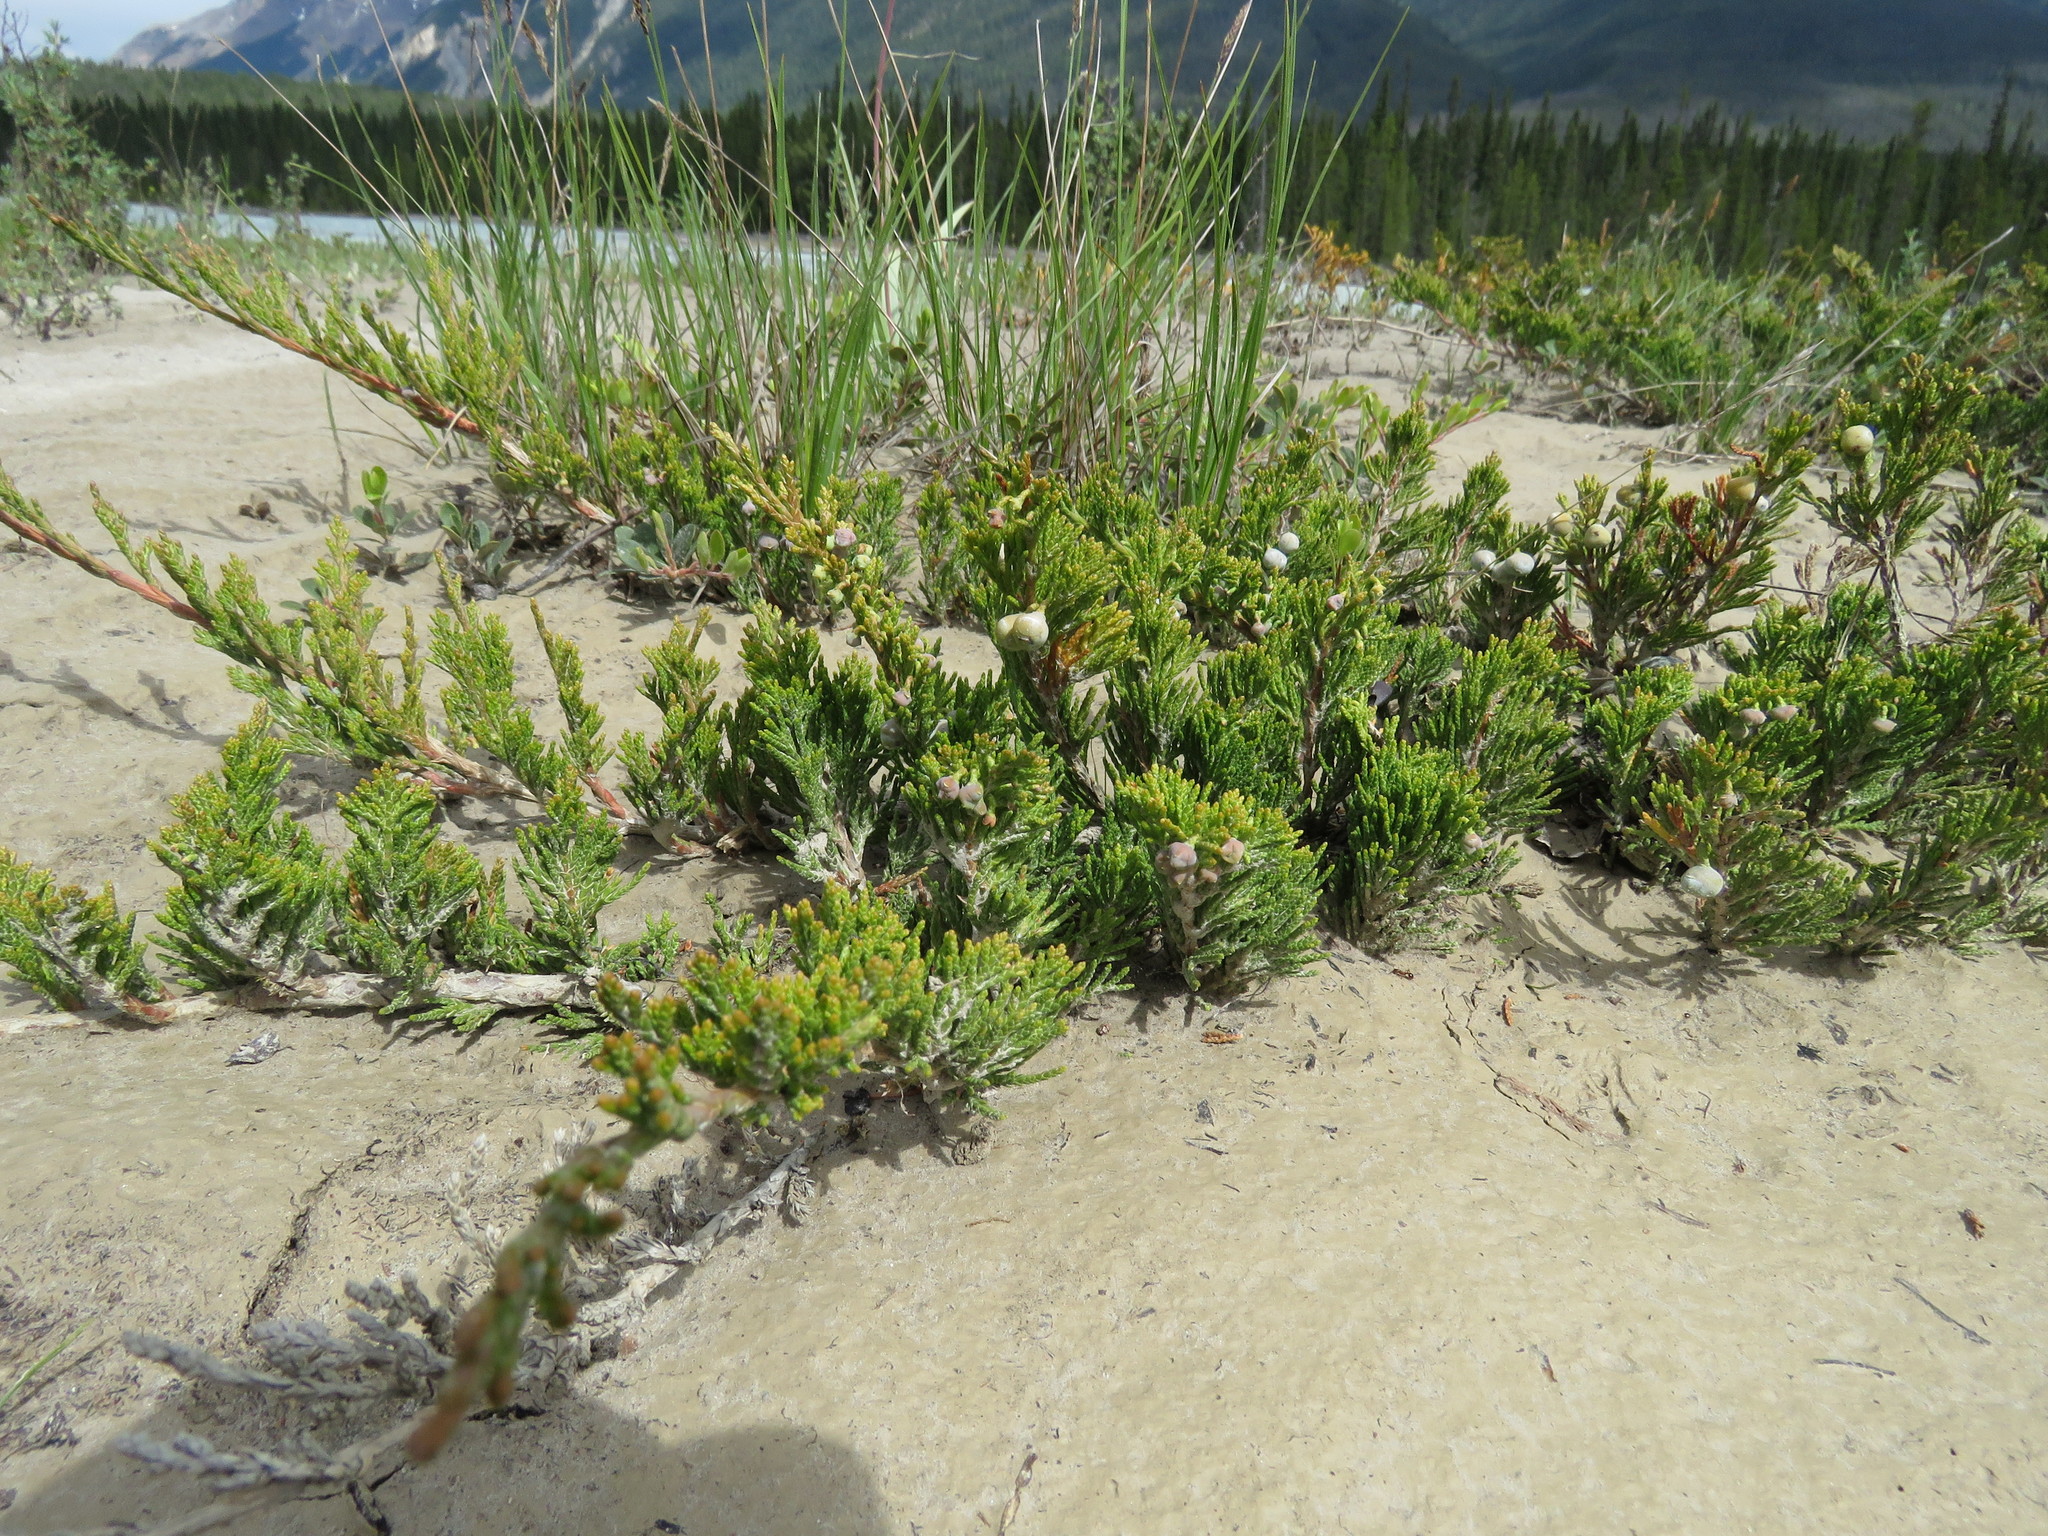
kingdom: Plantae
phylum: Tracheophyta
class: Pinopsida
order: Pinales
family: Cupressaceae
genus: Juniperus
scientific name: Juniperus horizontalis
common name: Creeping juniper
